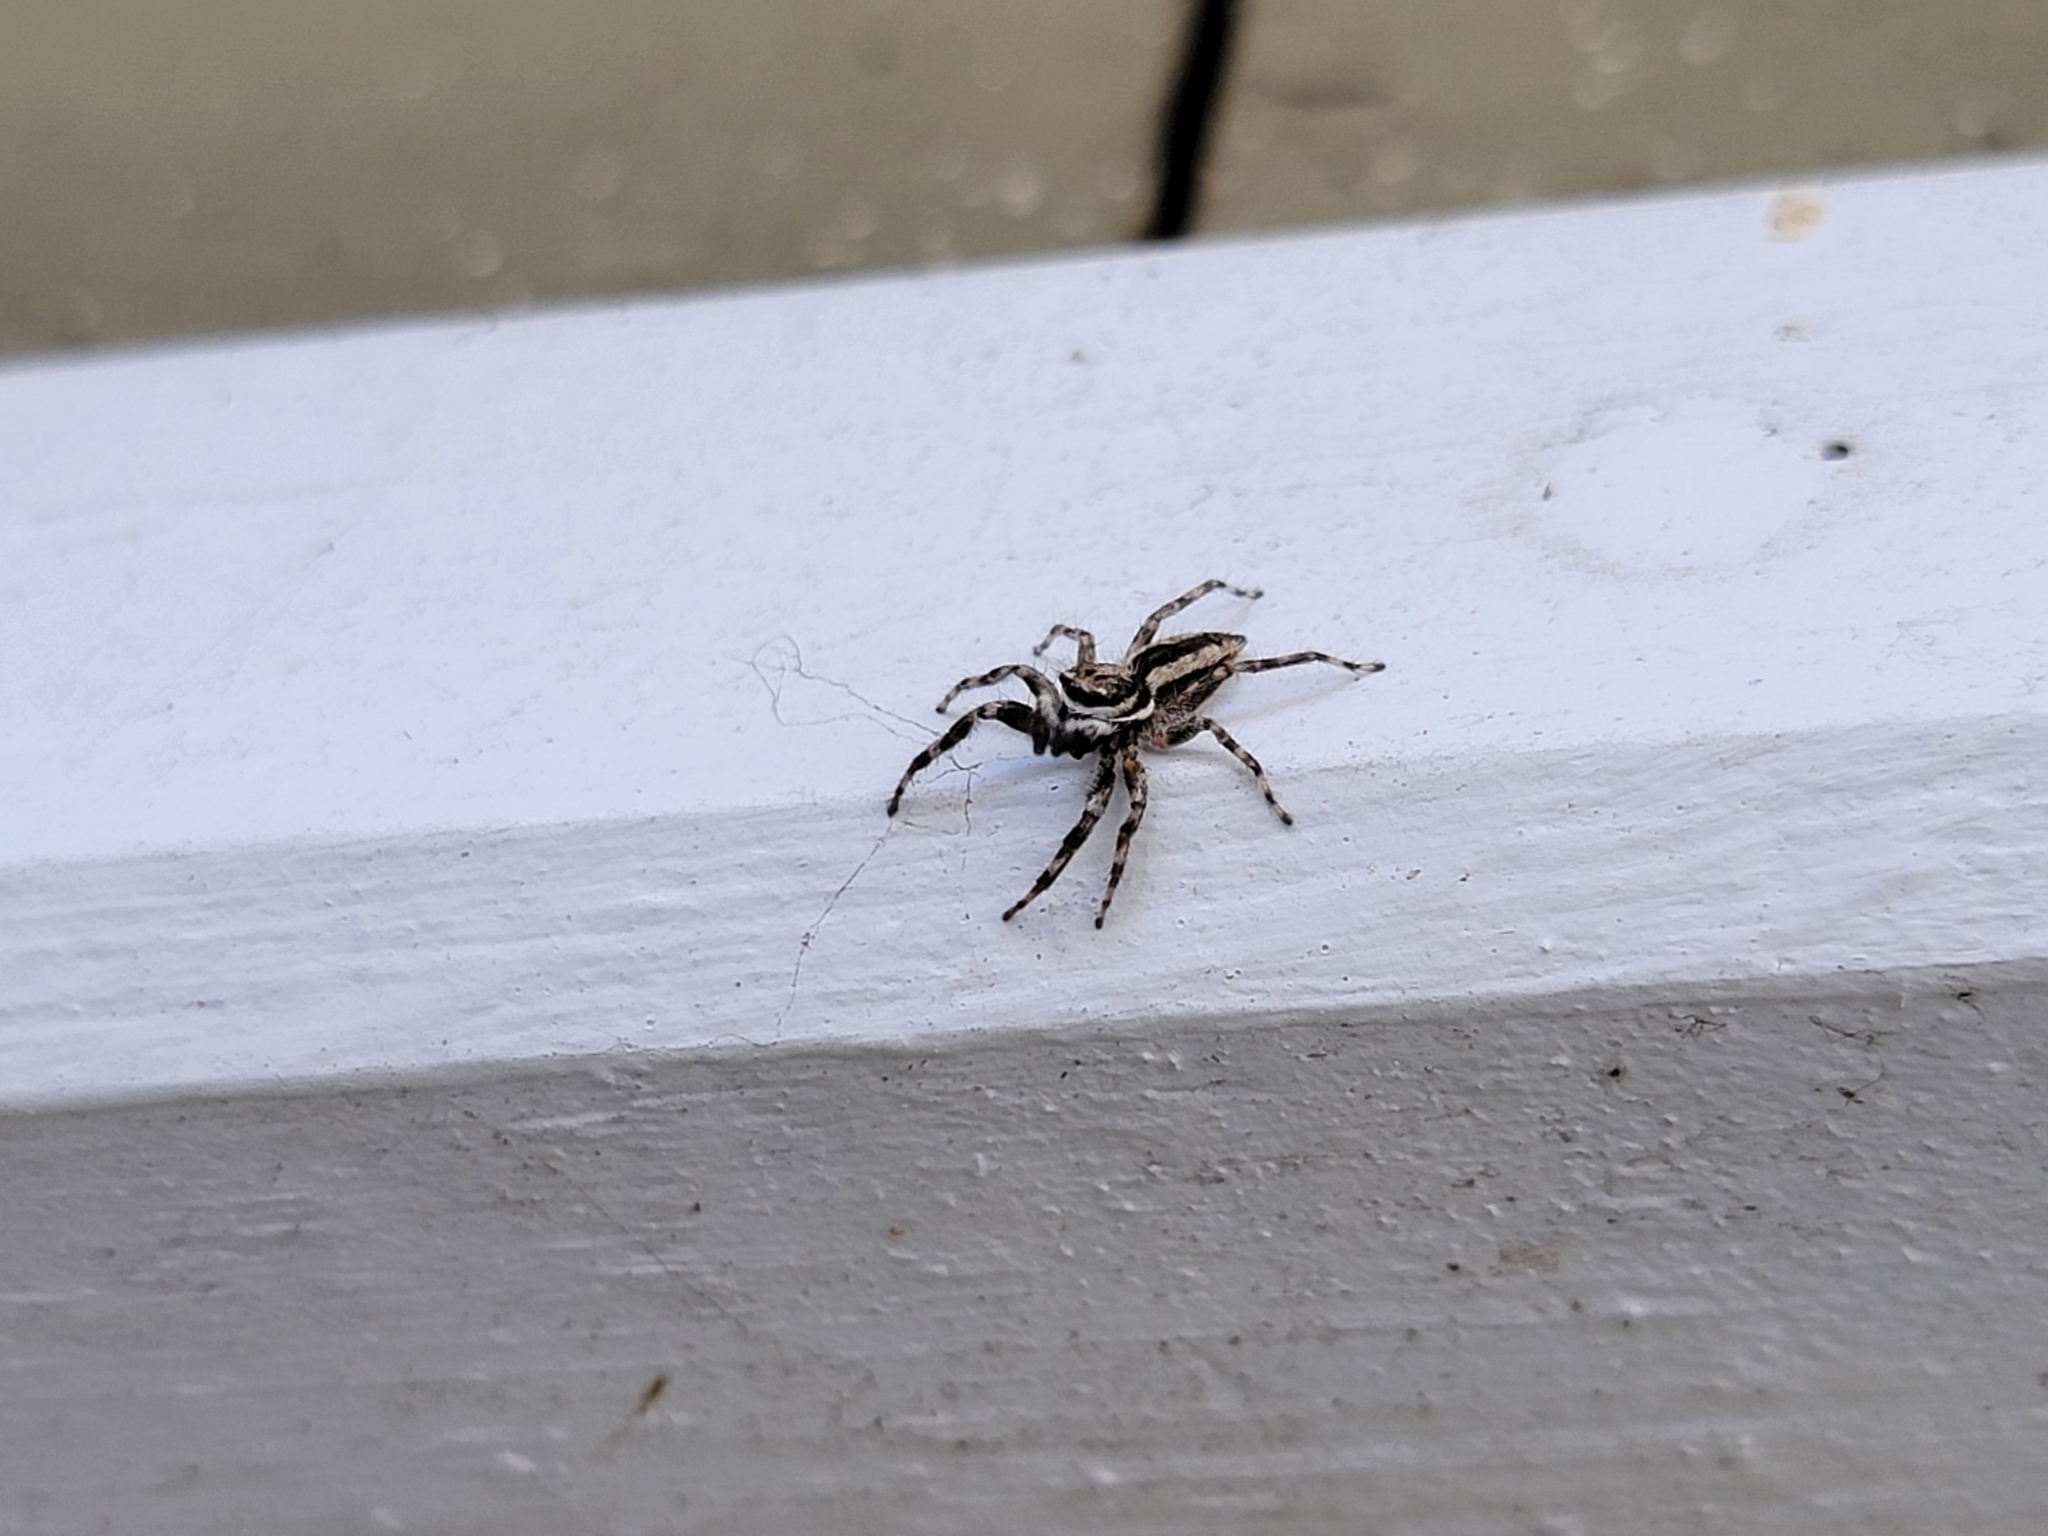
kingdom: Animalia
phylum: Arthropoda
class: Arachnida
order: Araneae
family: Salticidae
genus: Menemerus
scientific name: Menemerus bivittatus
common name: Gray wall jumper
